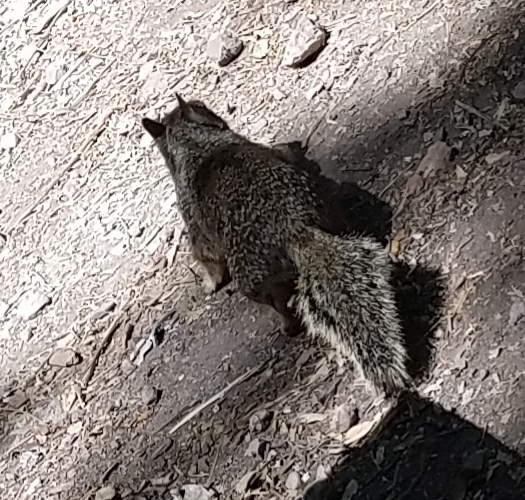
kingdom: Animalia
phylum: Chordata
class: Mammalia
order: Rodentia
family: Sciuridae
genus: Otospermophilus
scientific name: Otospermophilus beecheyi
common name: California ground squirrel
